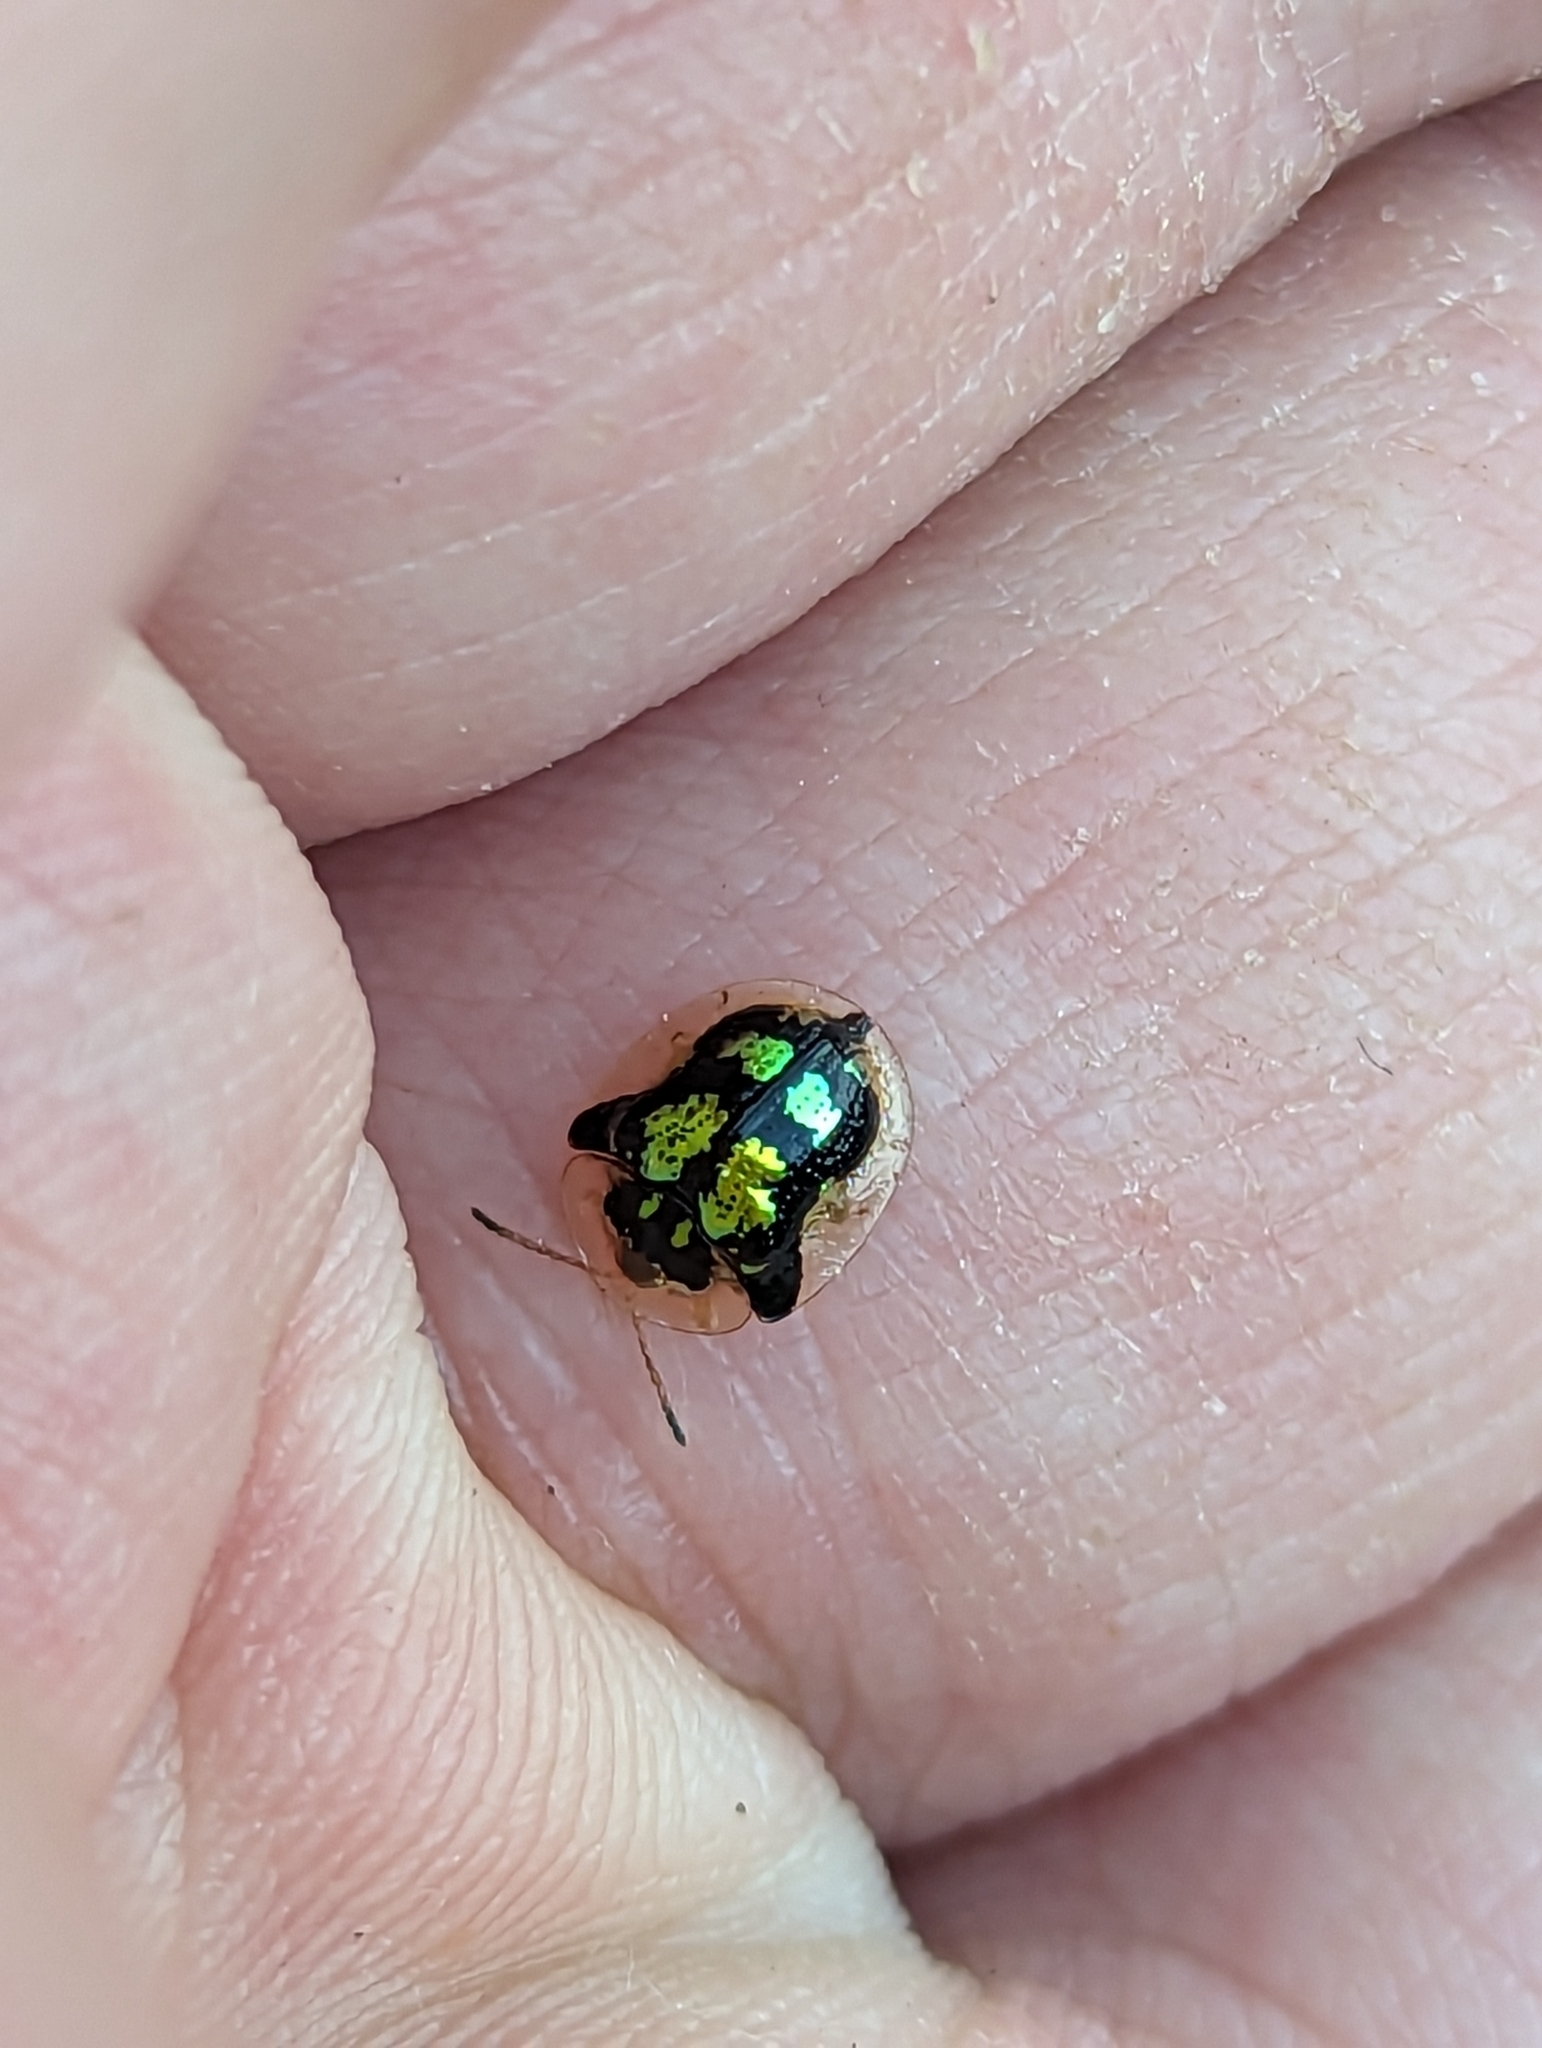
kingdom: Animalia
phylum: Arthropoda
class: Insecta
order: Coleoptera
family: Chrysomelidae
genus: Deloyala
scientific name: Deloyala guttata
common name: Mottled tortoise beetle
